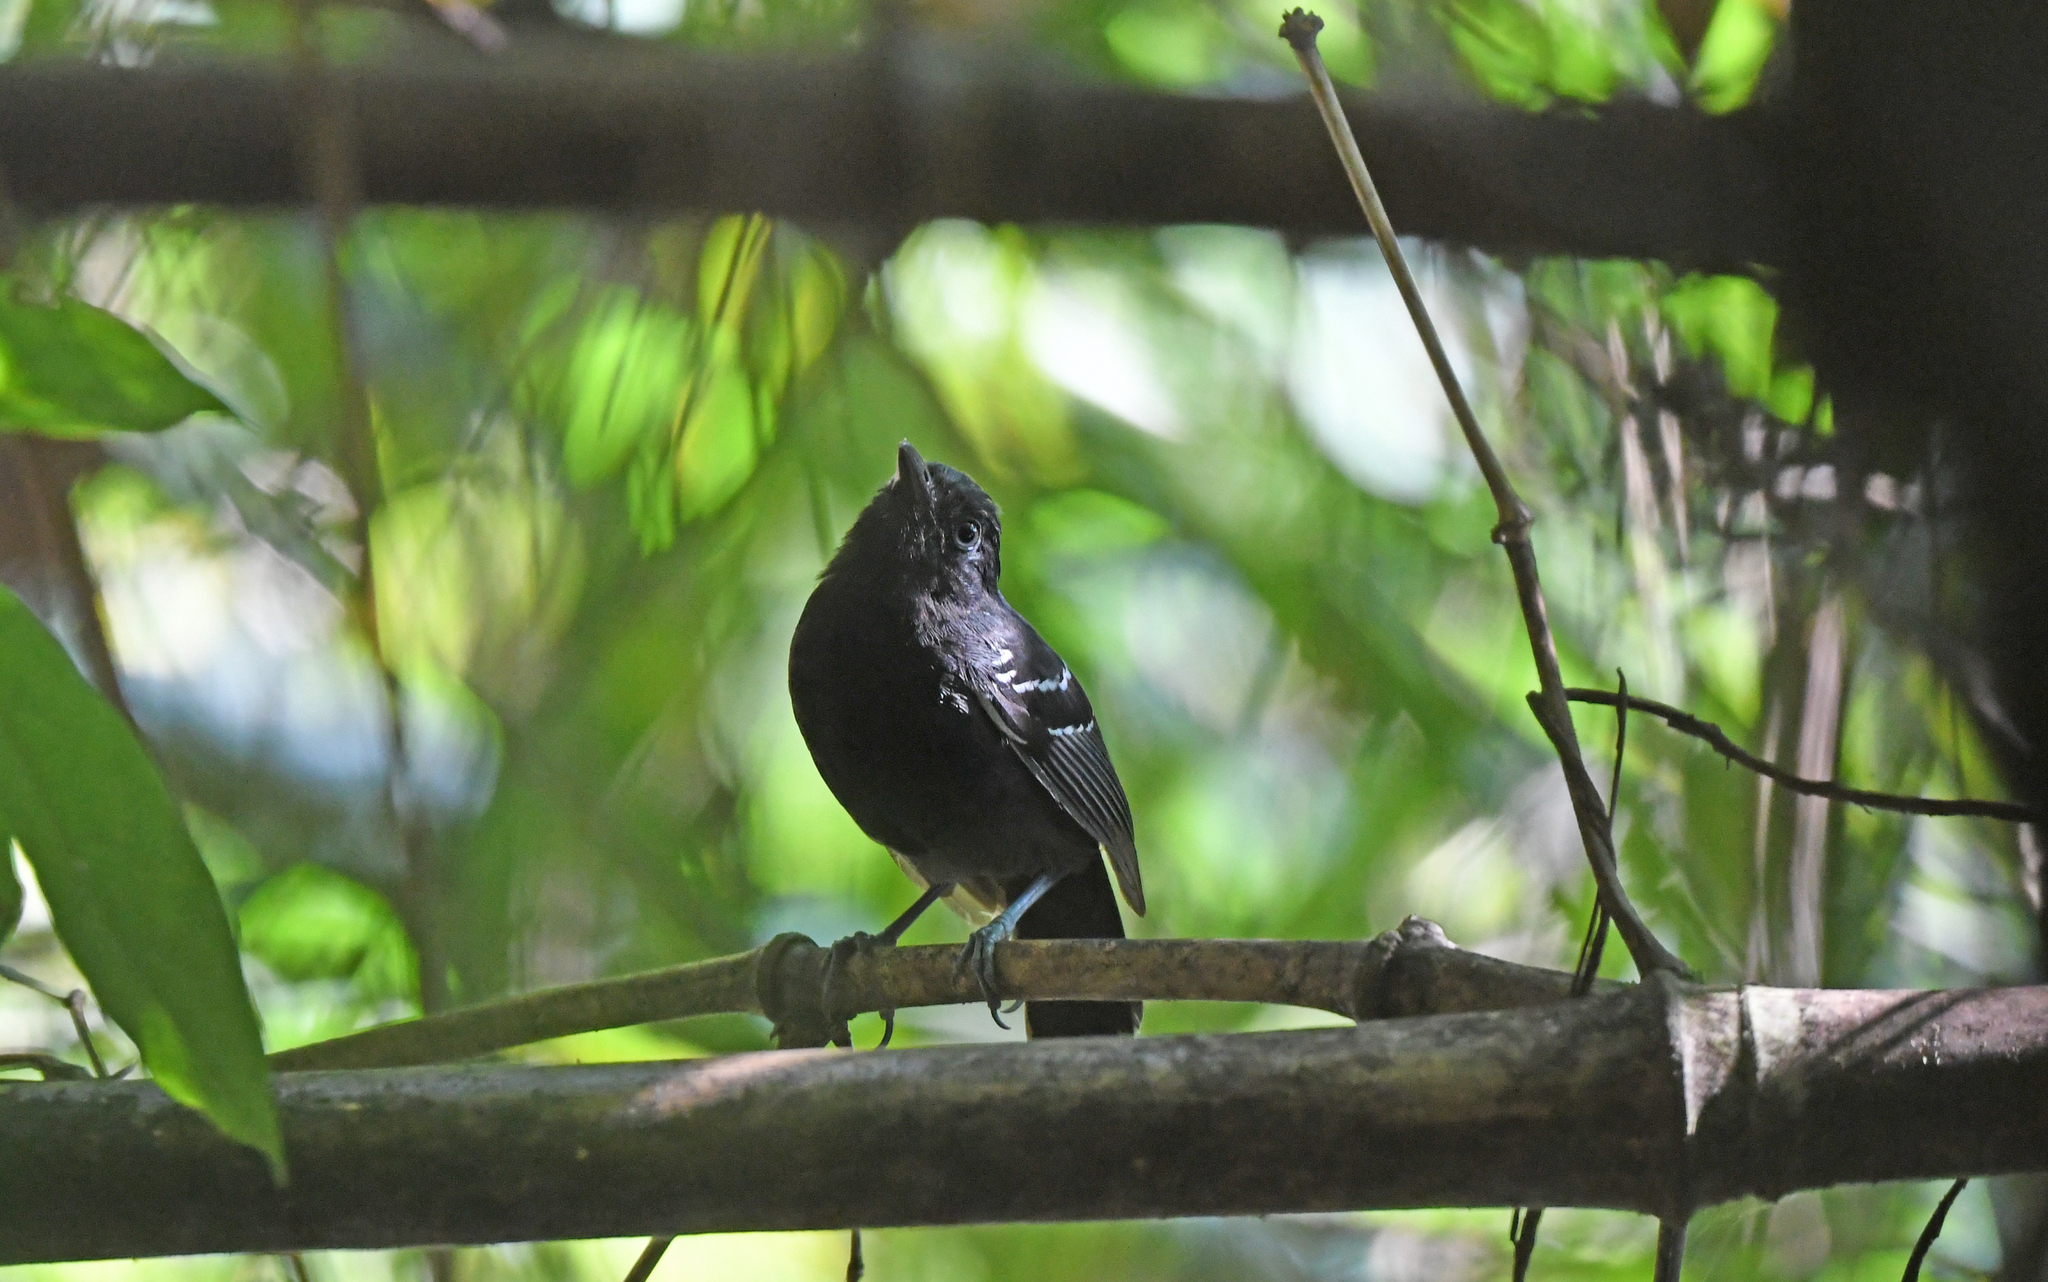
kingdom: Animalia
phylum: Chordata
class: Aves
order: Passeriformes
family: Thamnophilidae
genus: Percnostola
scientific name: Percnostola lophotes
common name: White-lined antbird
